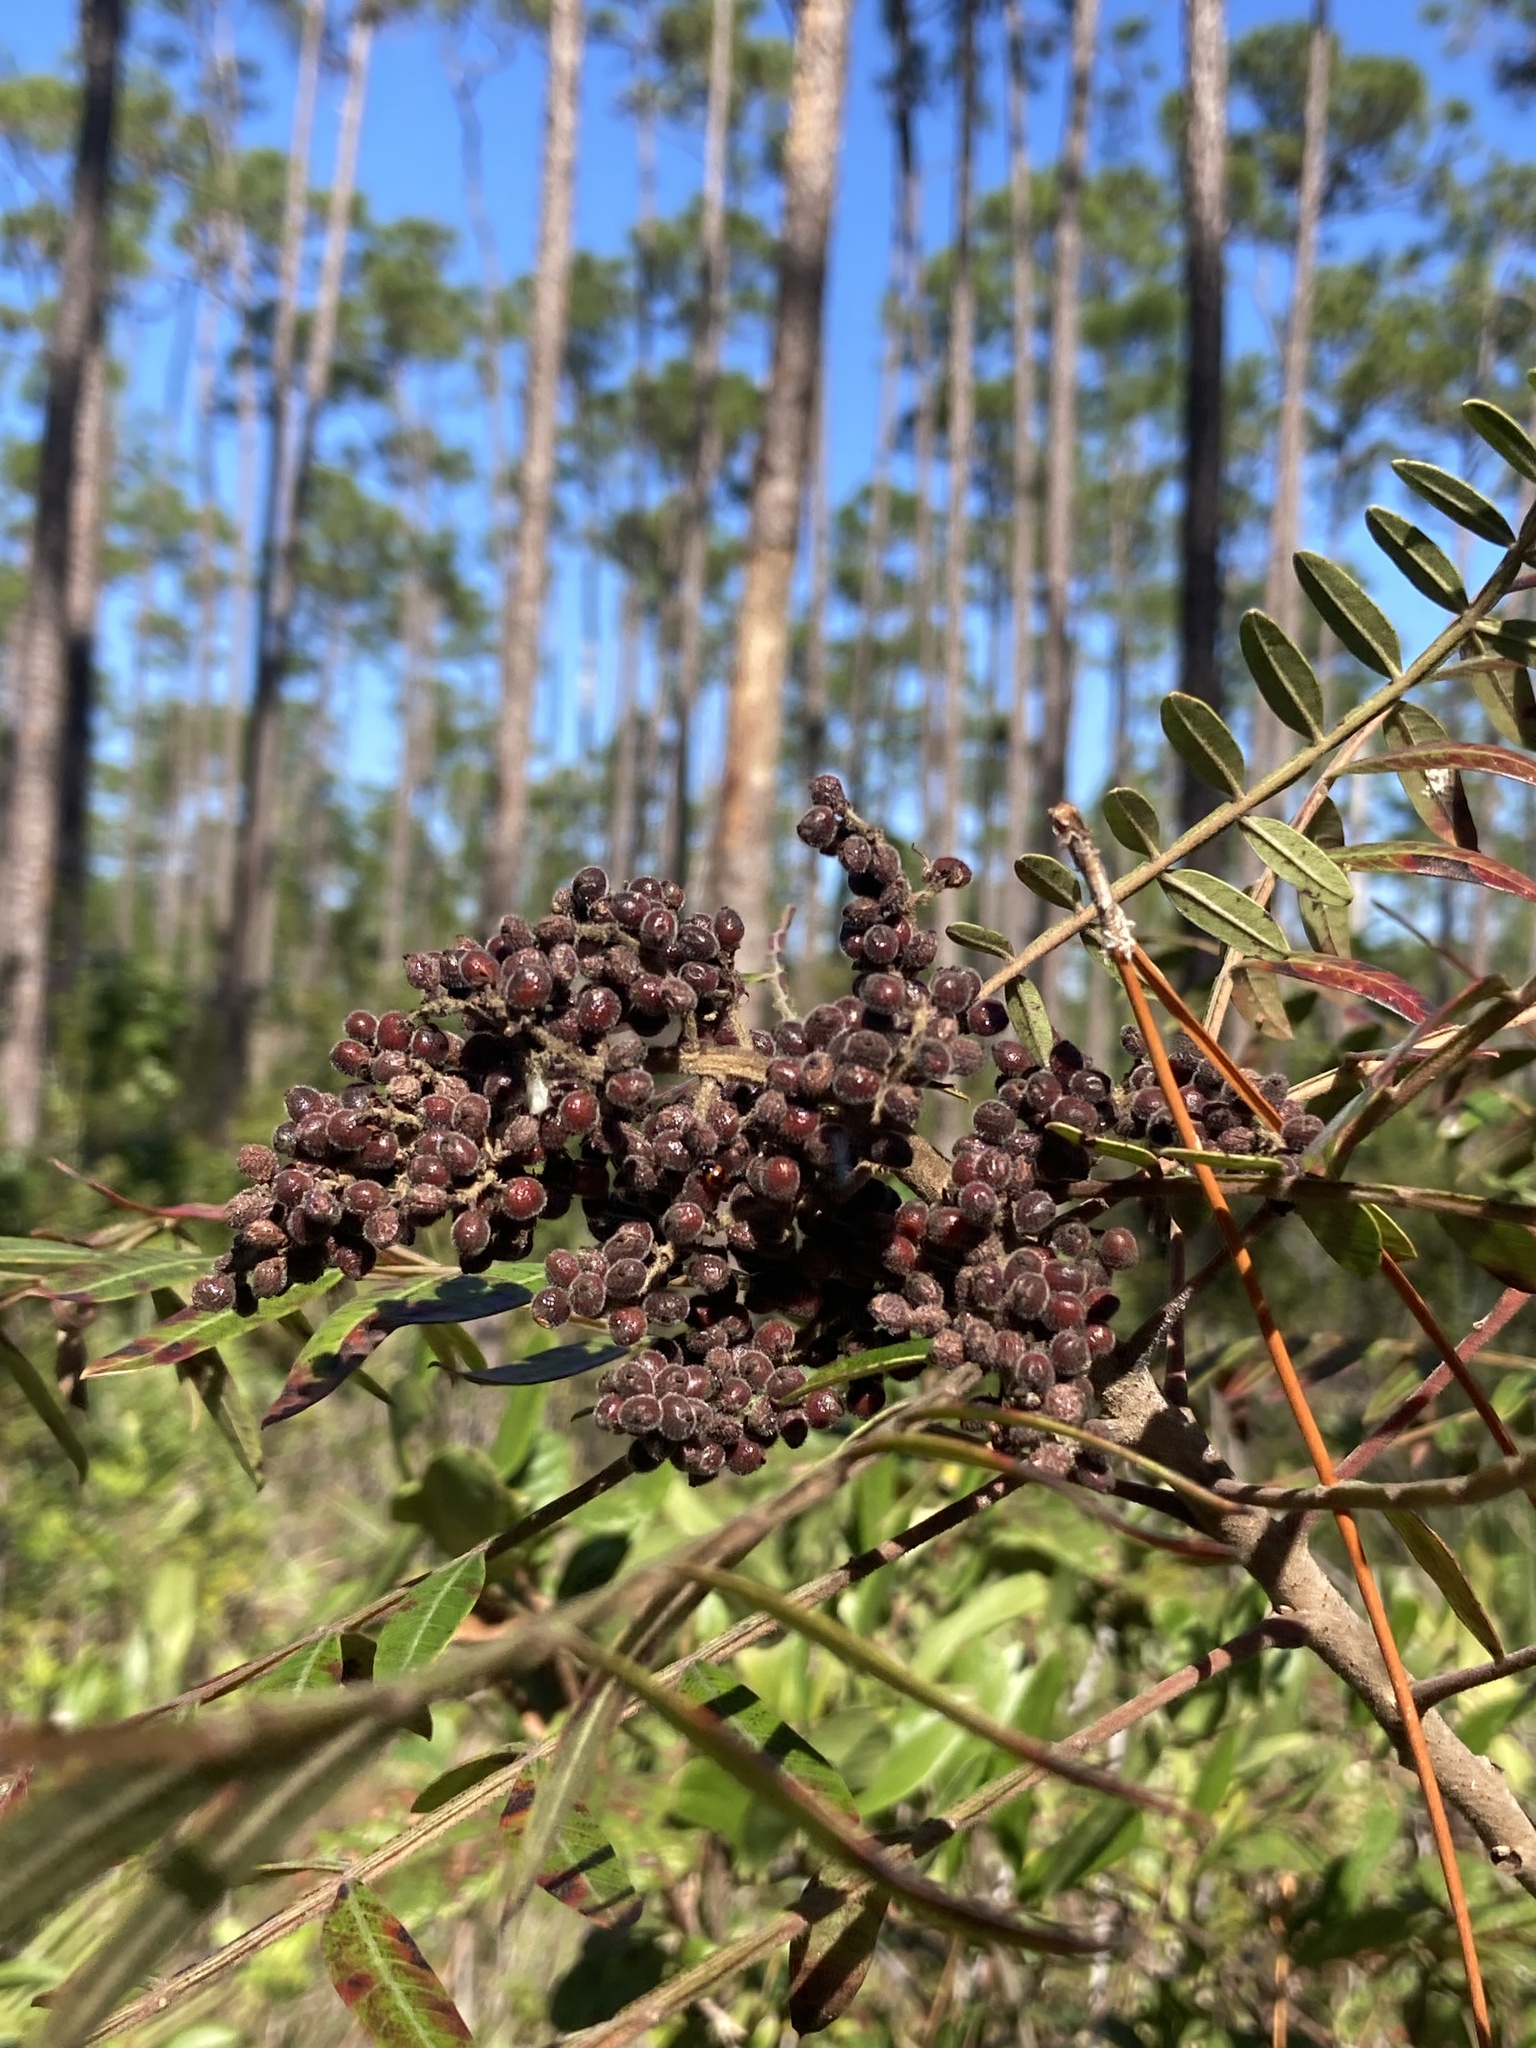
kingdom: Plantae
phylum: Tracheophyta
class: Magnoliopsida
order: Sapindales
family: Anacardiaceae
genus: Rhus
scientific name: Rhus copallina
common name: Shining sumac
